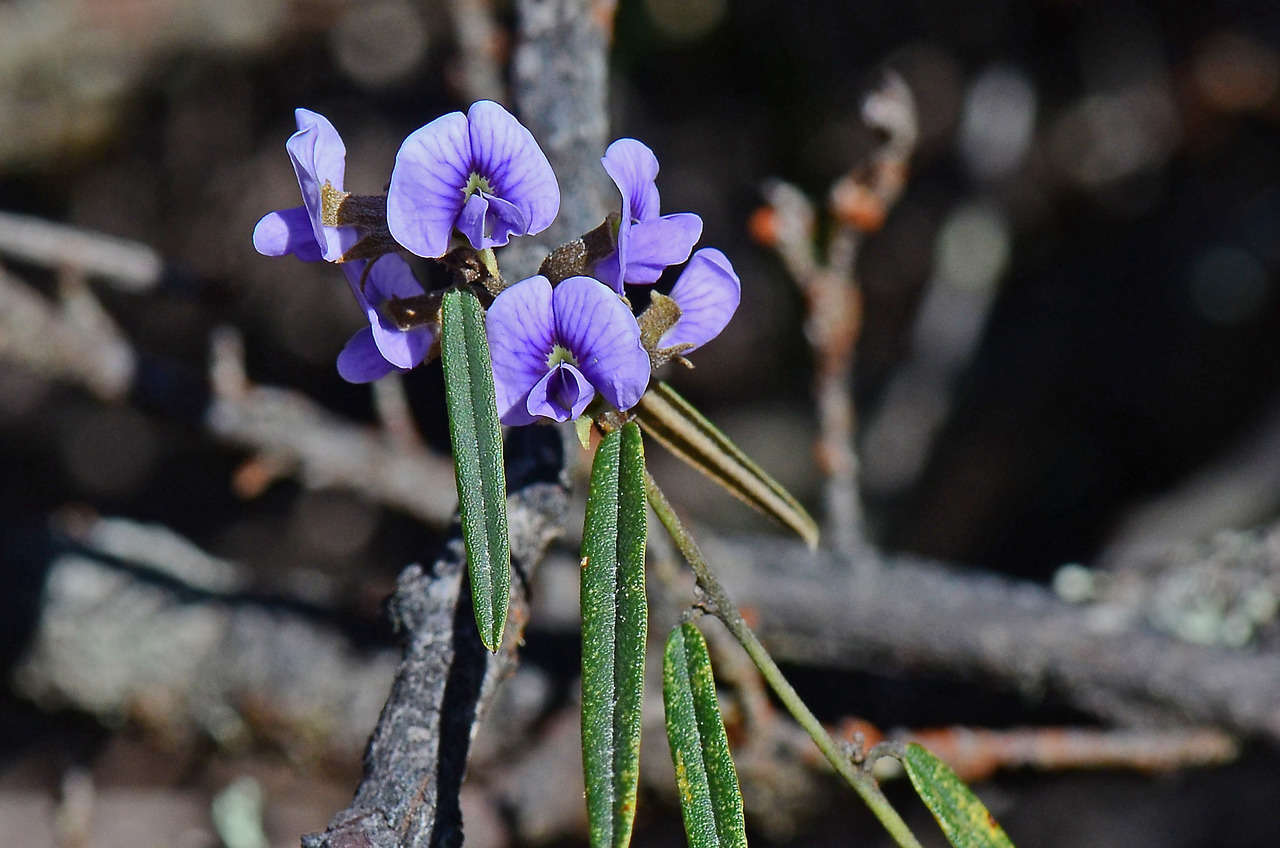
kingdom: Plantae
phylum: Tracheophyta
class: Magnoliopsida
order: Fabales
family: Fabaceae
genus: Hovea
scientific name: Hovea heterophylla
